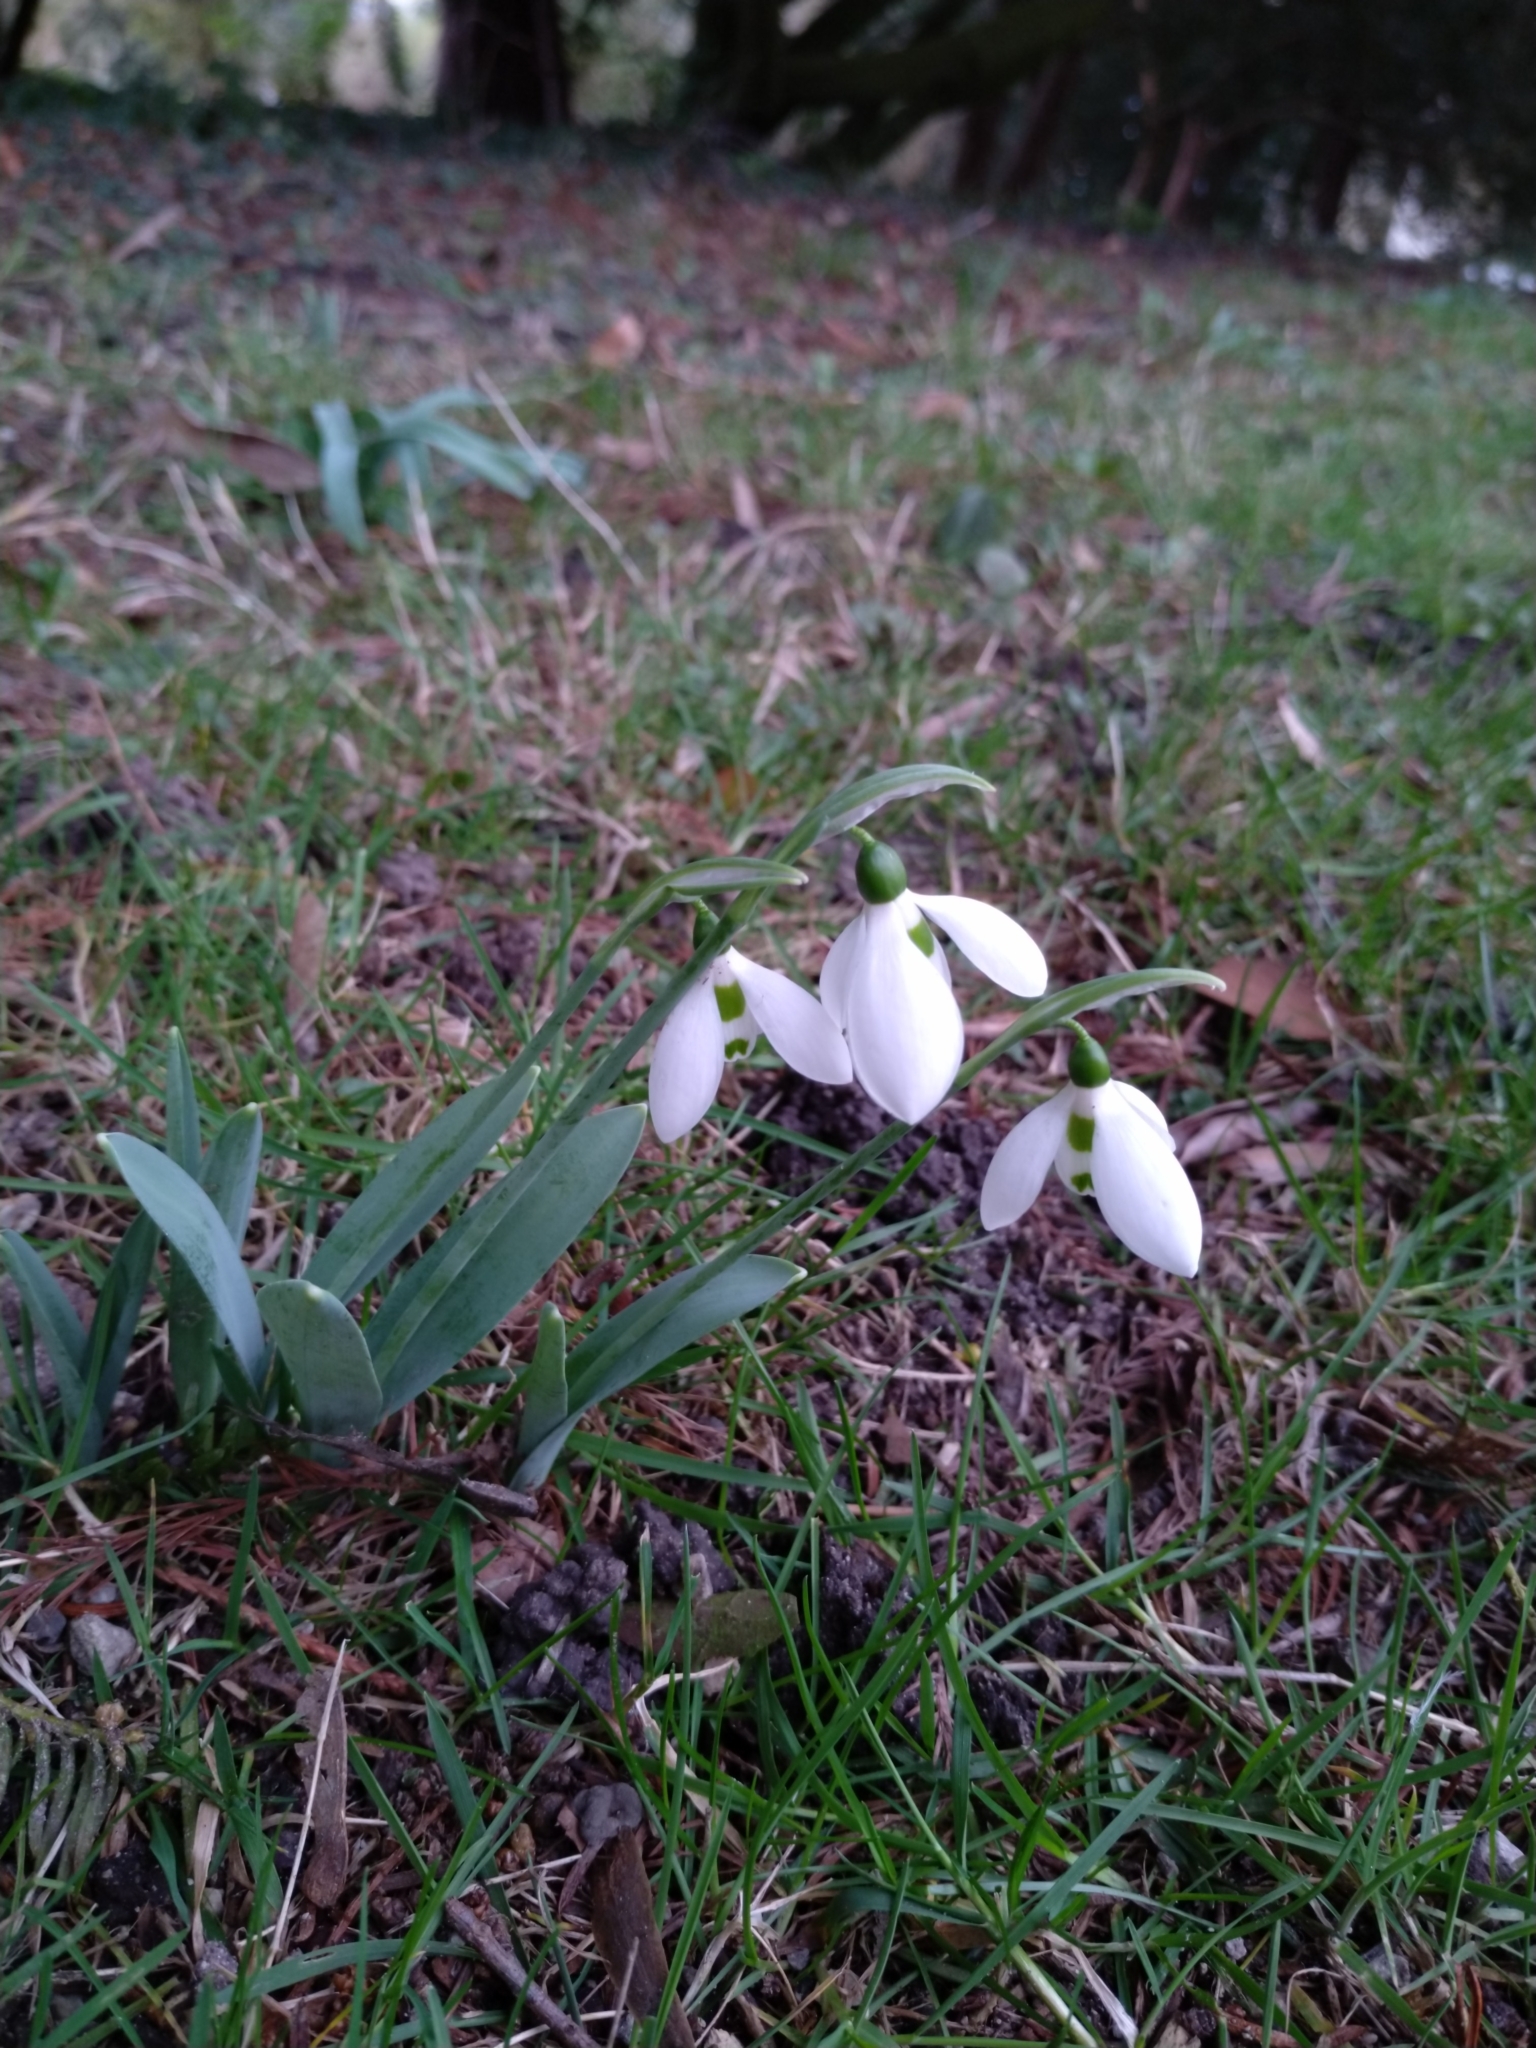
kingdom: Plantae
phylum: Tracheophyta
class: Liliopsida
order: Asparagales
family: Amaryllidaceae
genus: Galanthus
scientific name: Galanthus elwesii
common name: Greater snowdrop
